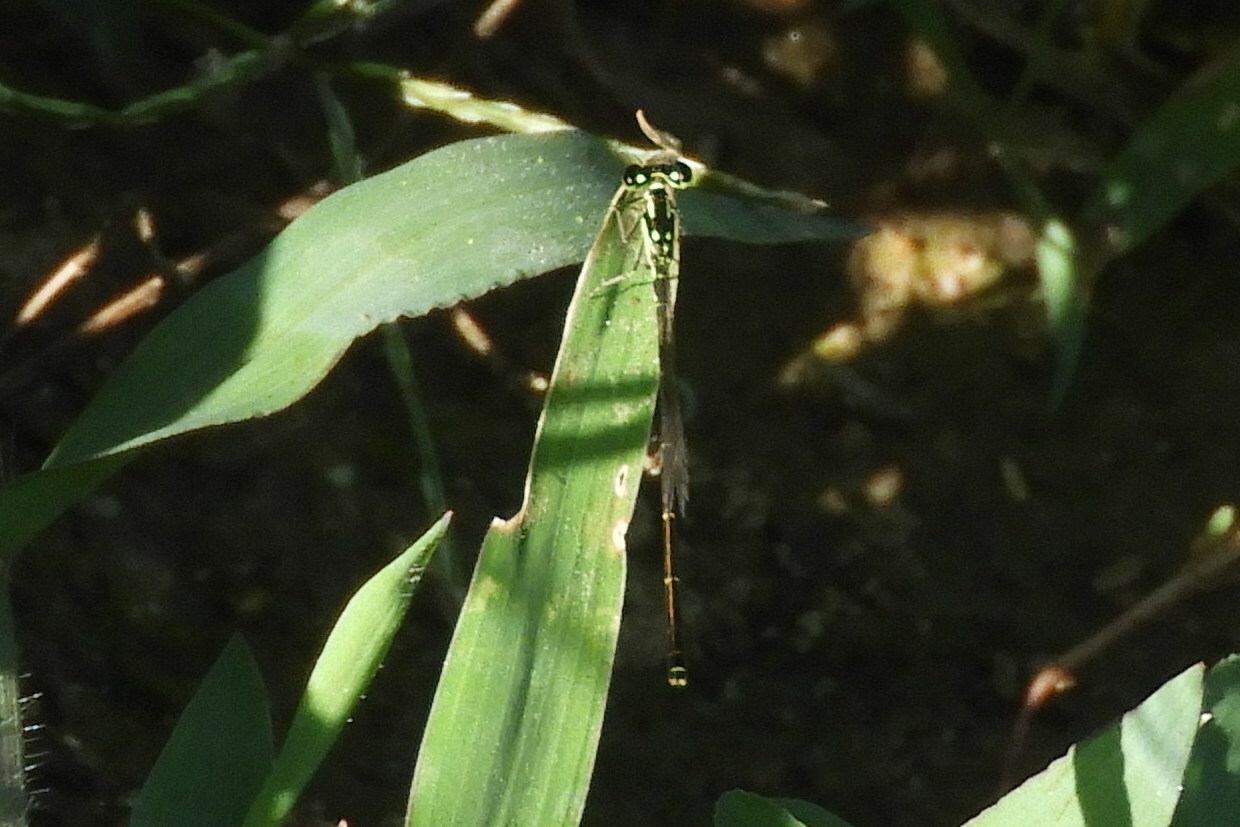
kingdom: Animalia
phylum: Arthropoda
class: Insecta
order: Odonata
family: Coenagrionidae
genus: Ischnura
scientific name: Ischnura posita
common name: Fragile forktail
